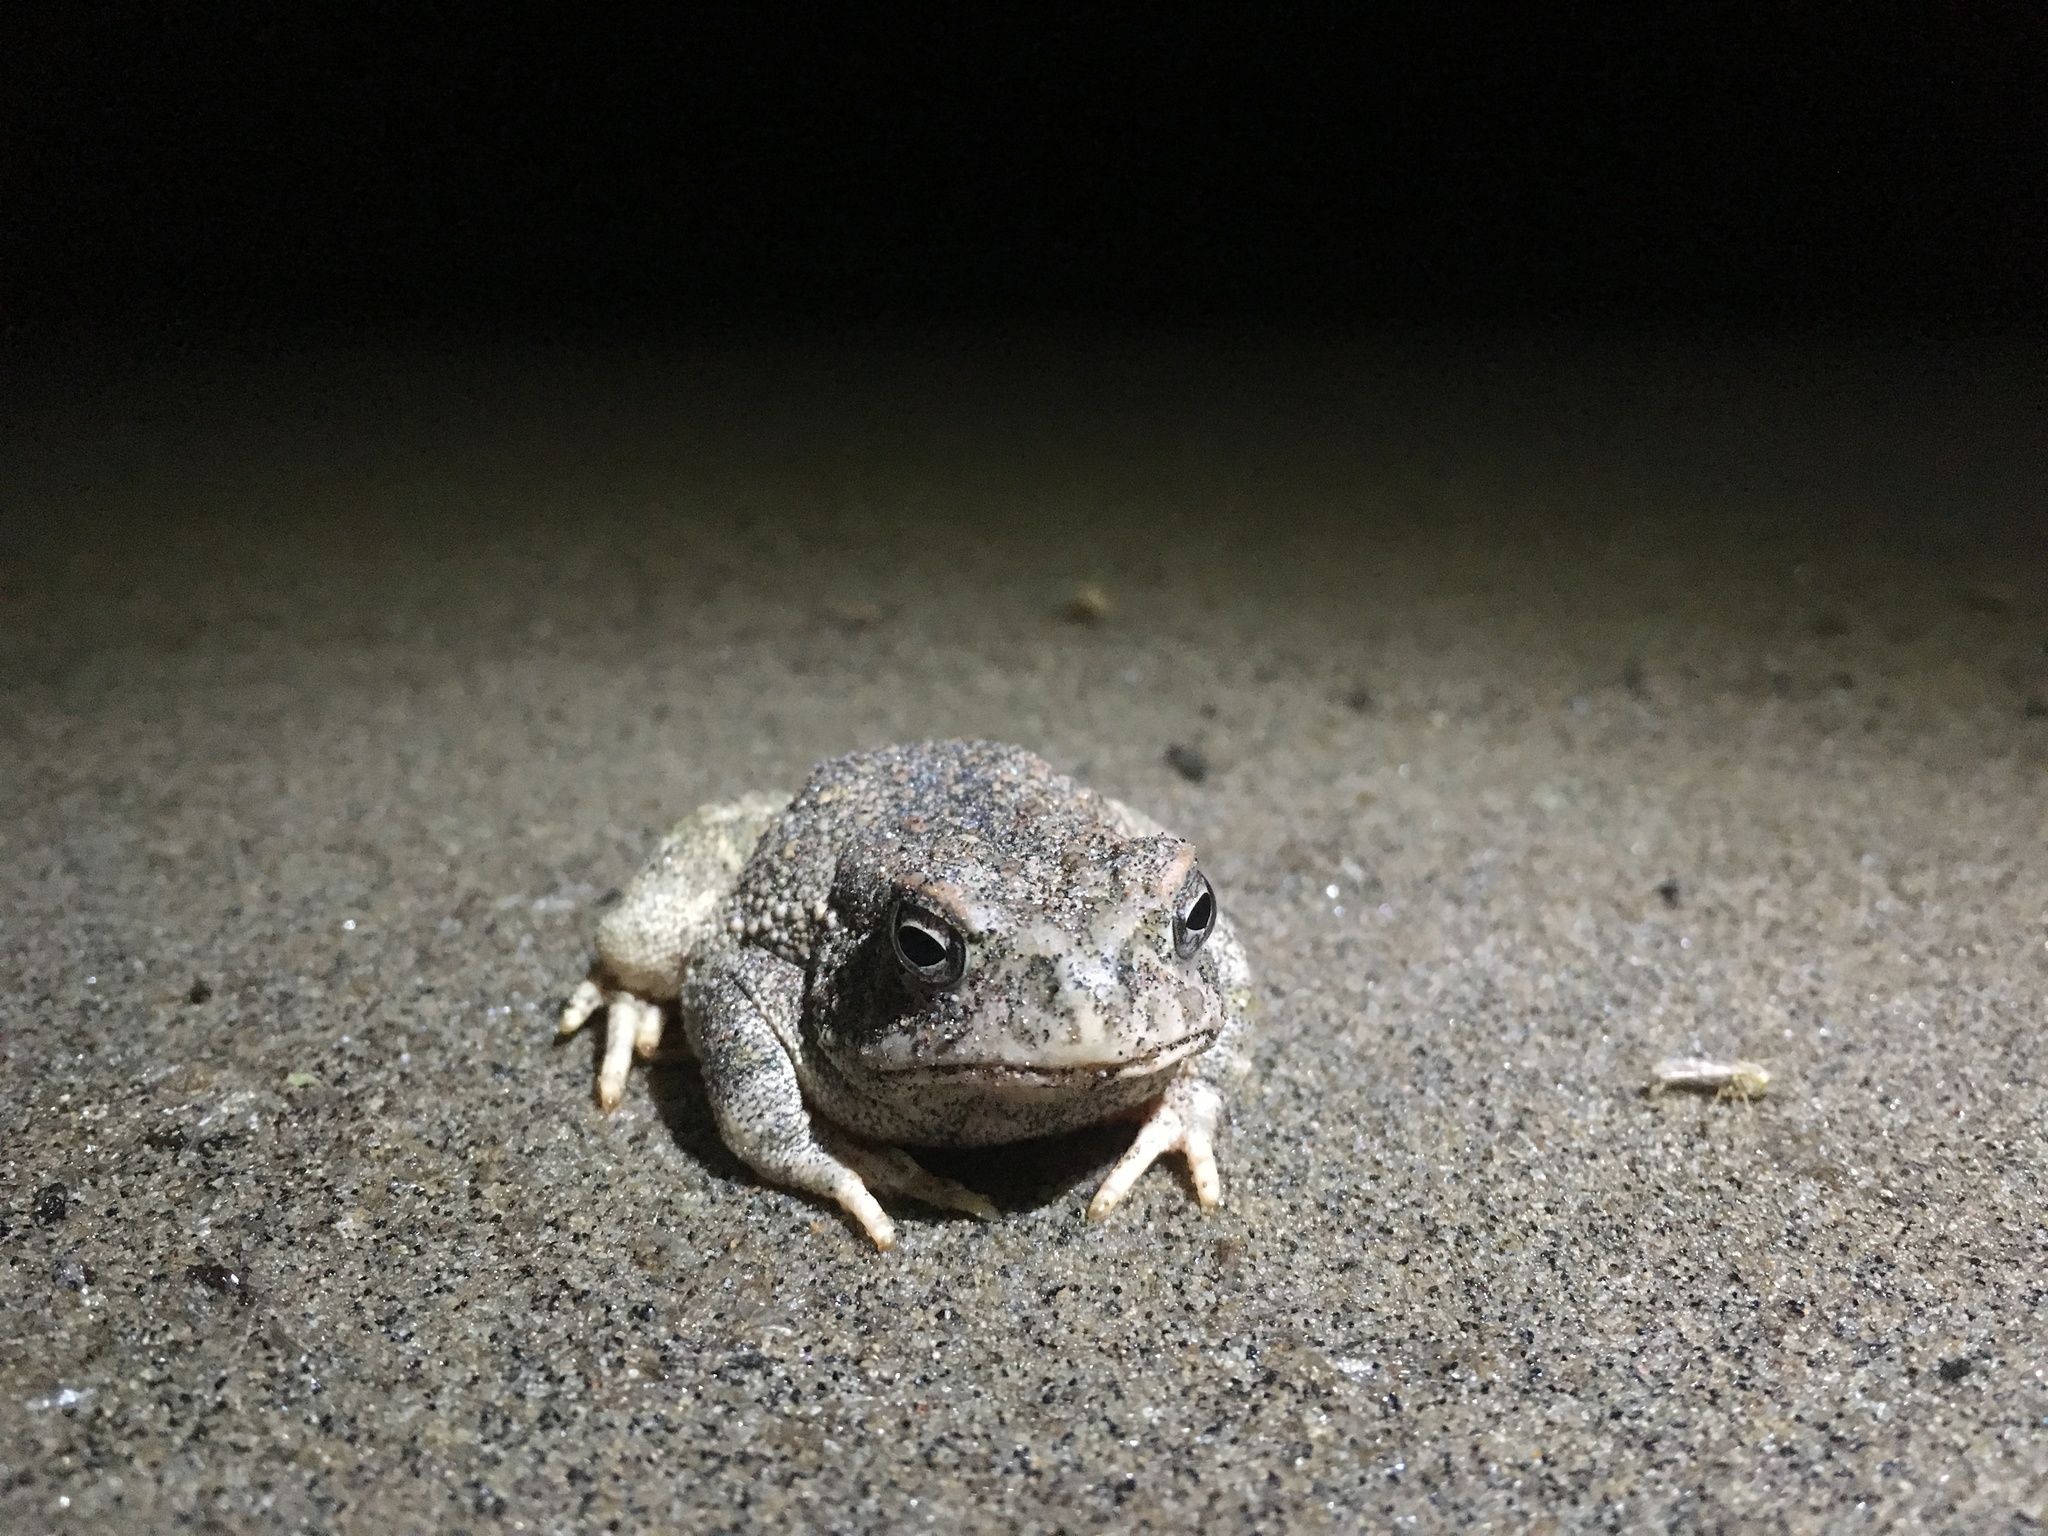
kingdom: Animalia
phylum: Chordata
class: Amphibia
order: Anura
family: Bufonidae
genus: Anaxyrus
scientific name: Anaxyrus fowleri
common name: Fowler's toad
